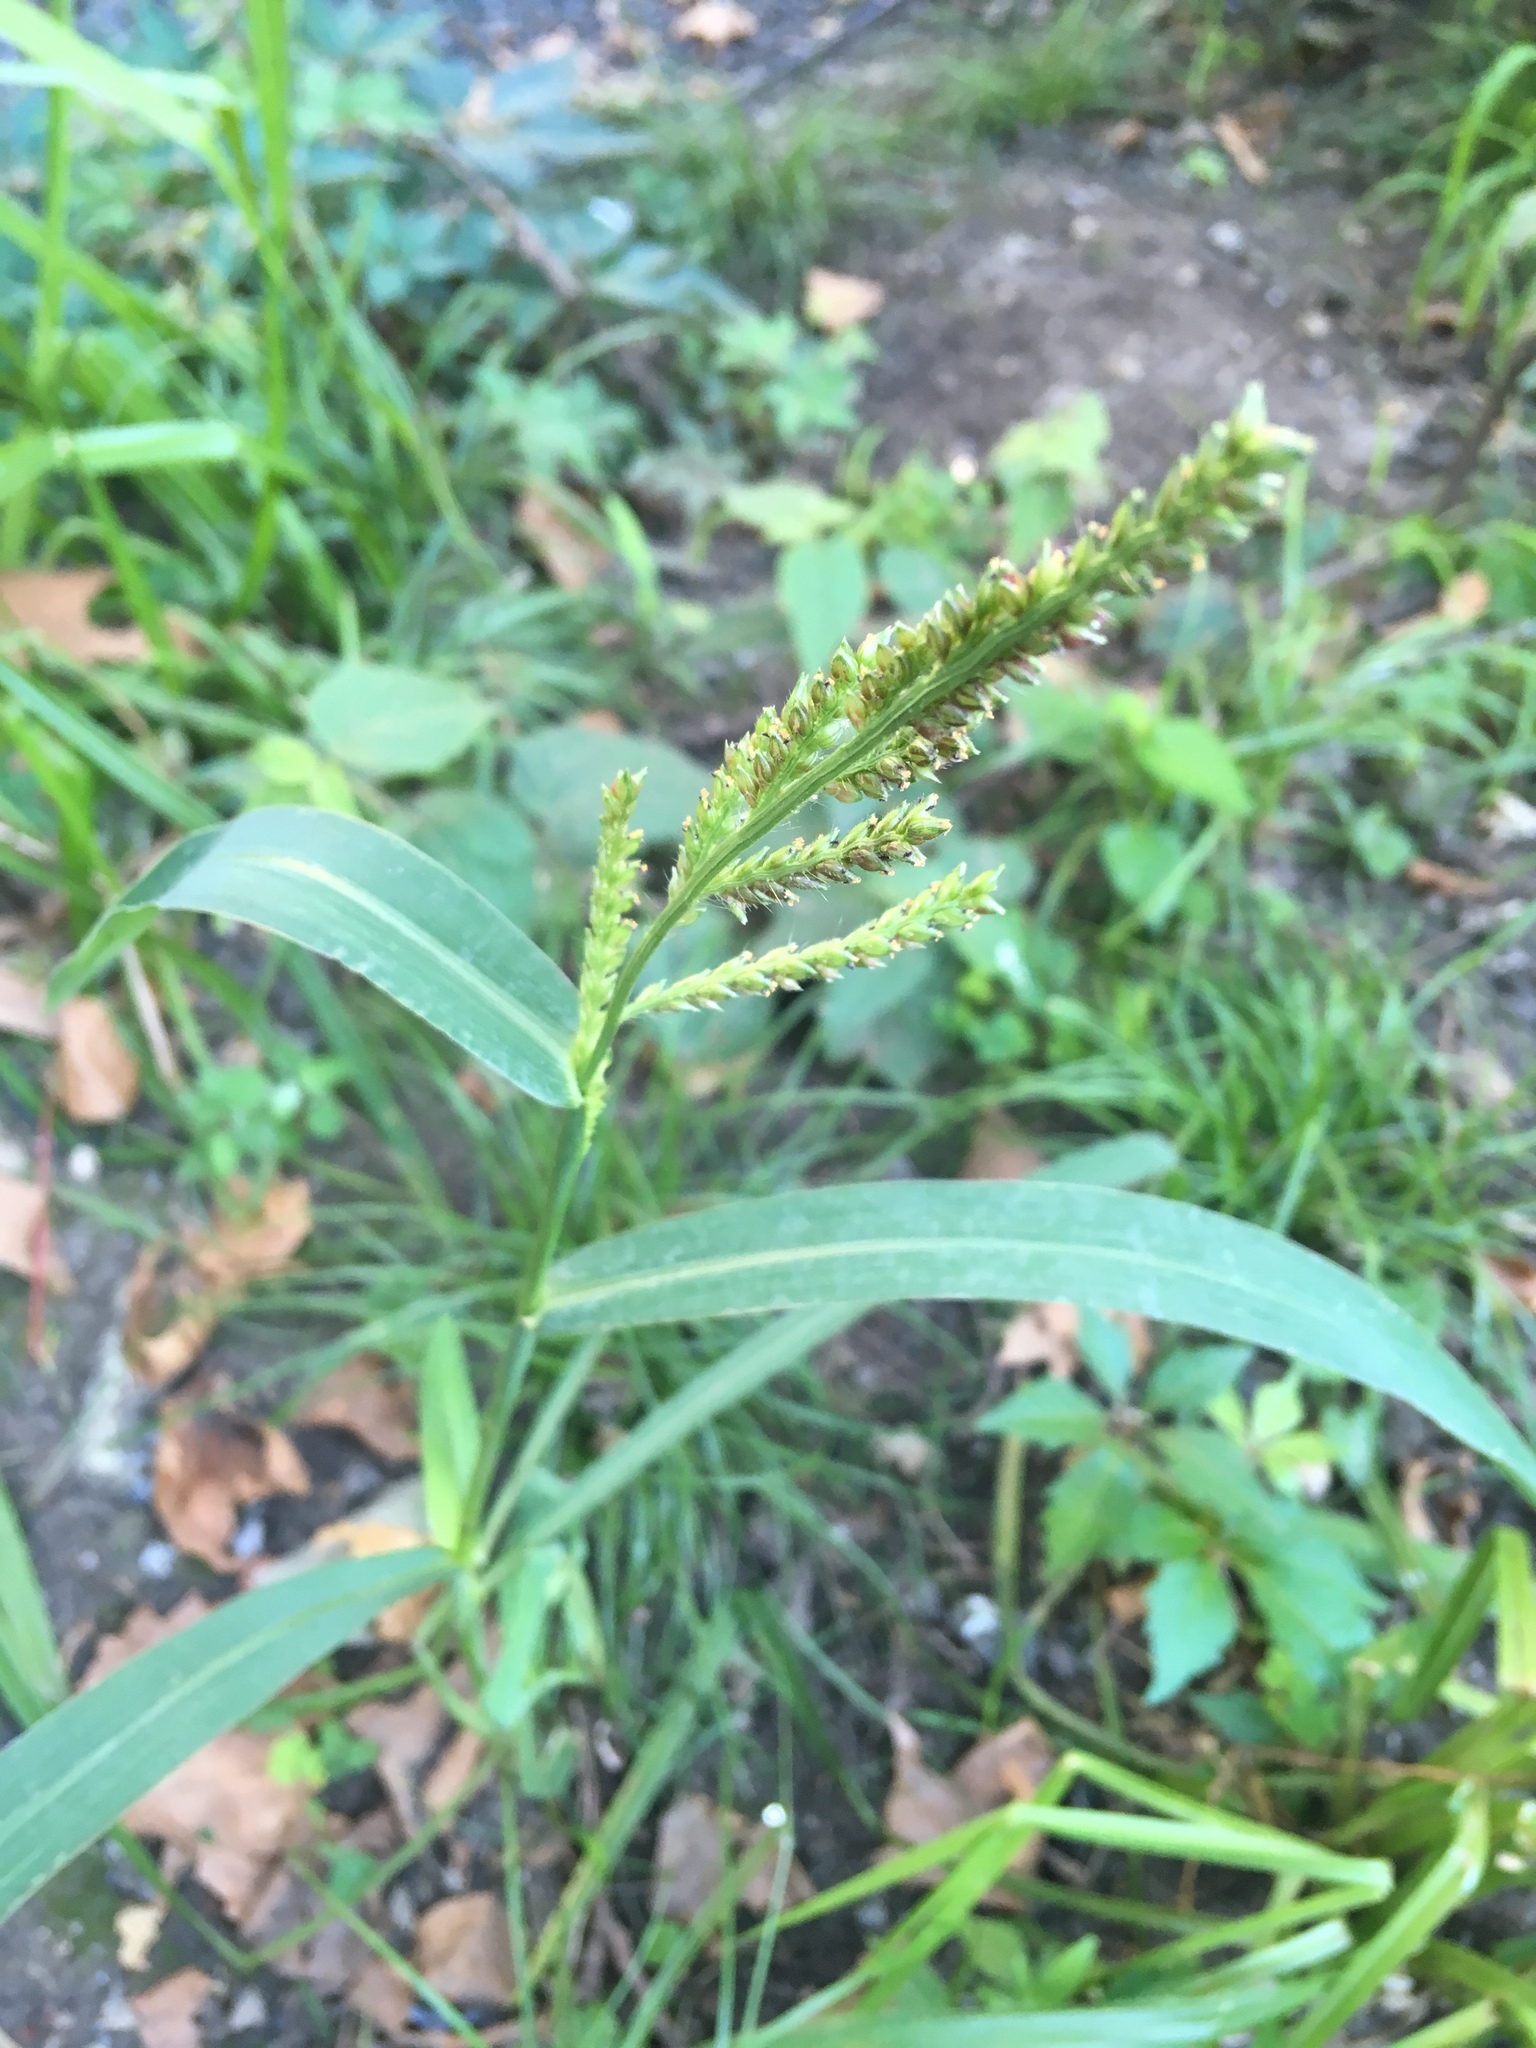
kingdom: Plantae
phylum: Tracheophyta
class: Liliopsida
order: Poales
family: Poaceae
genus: Echinochloa
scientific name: Echinochloa crus-galli
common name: Cockspur
